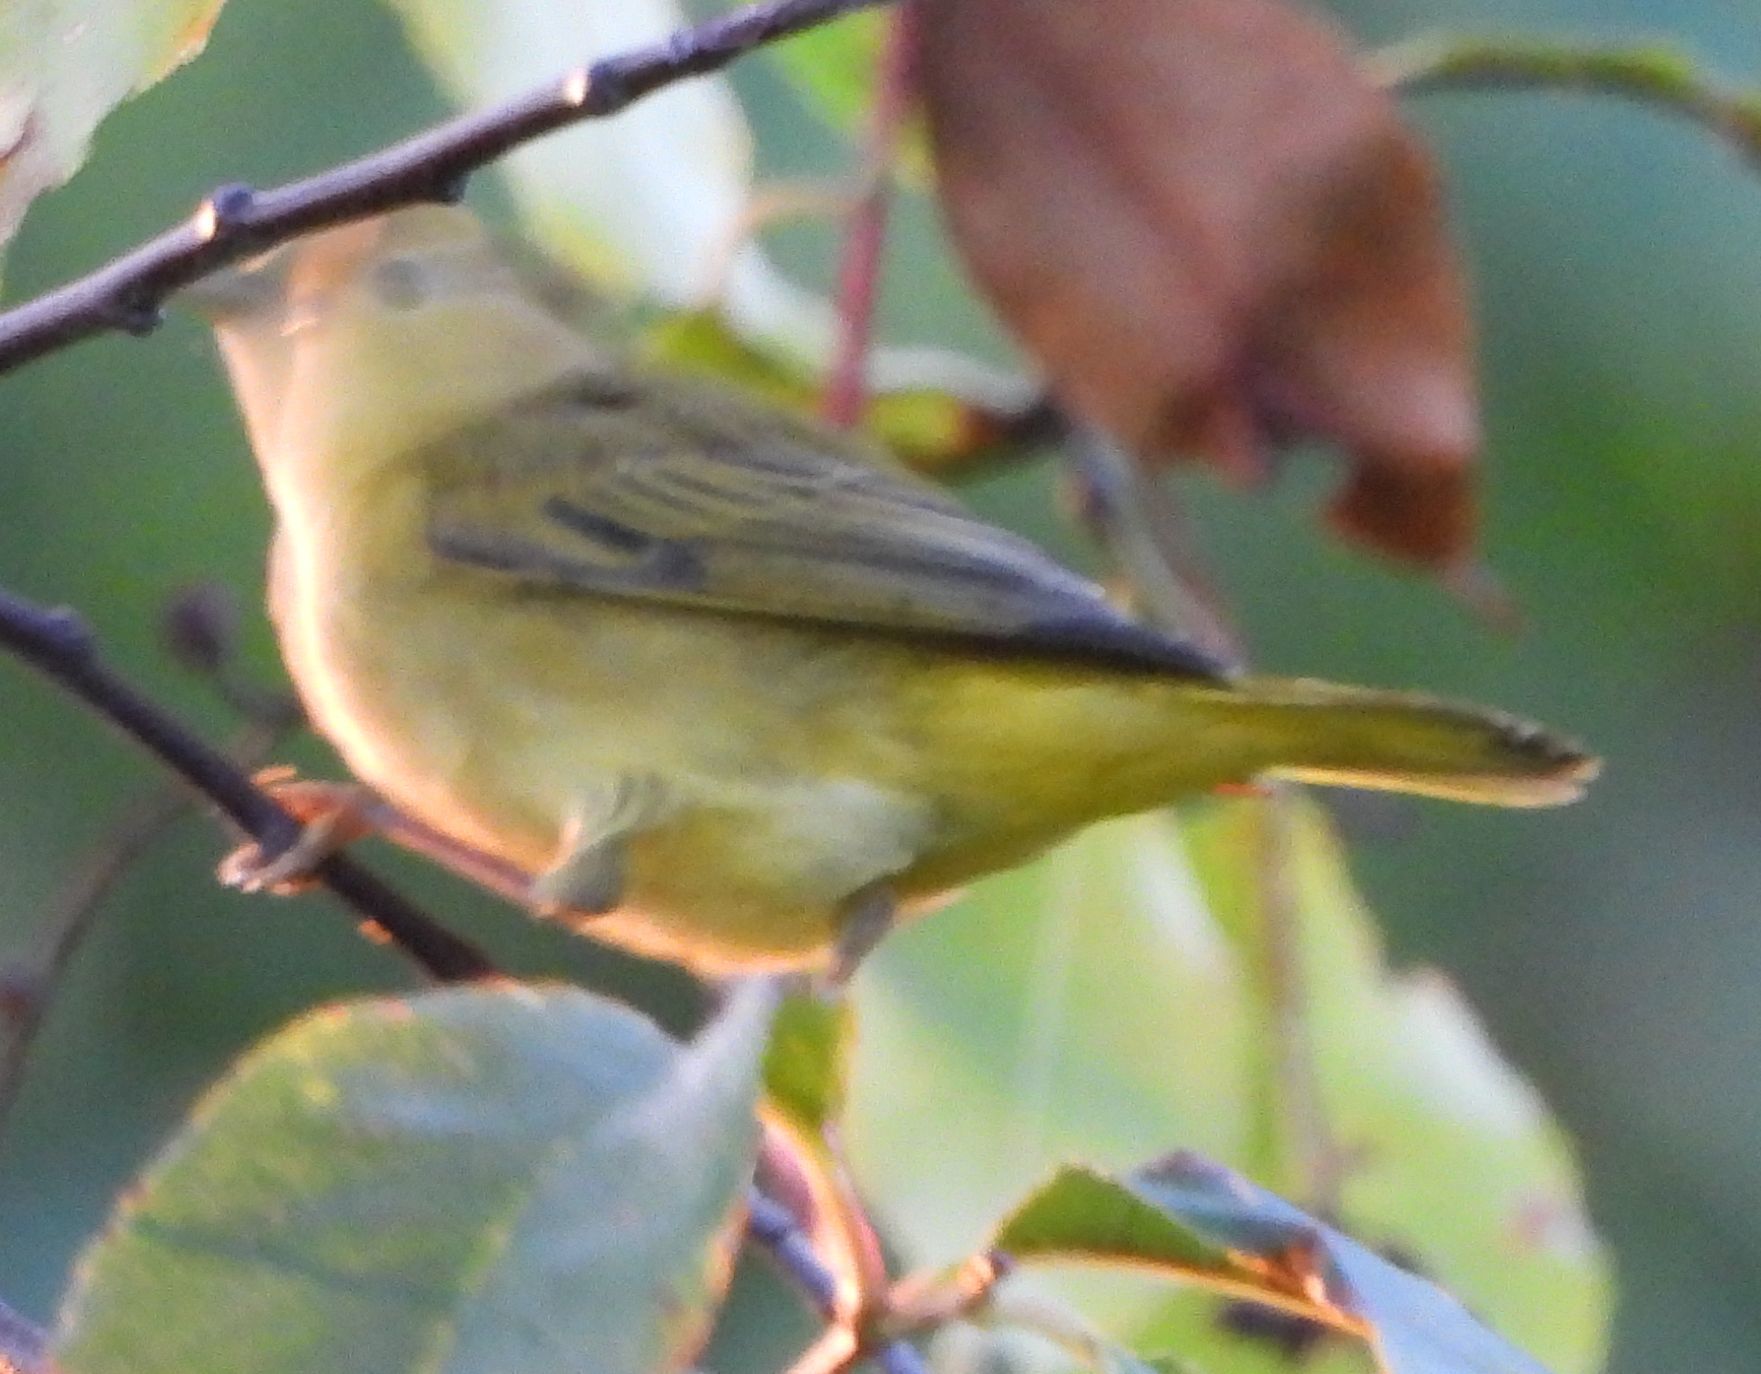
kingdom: Animalia
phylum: Chordata
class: Aves
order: Passeriformes
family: Parulidae
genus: Setophaga
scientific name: Setophaga petechia
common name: Yellow warbler
